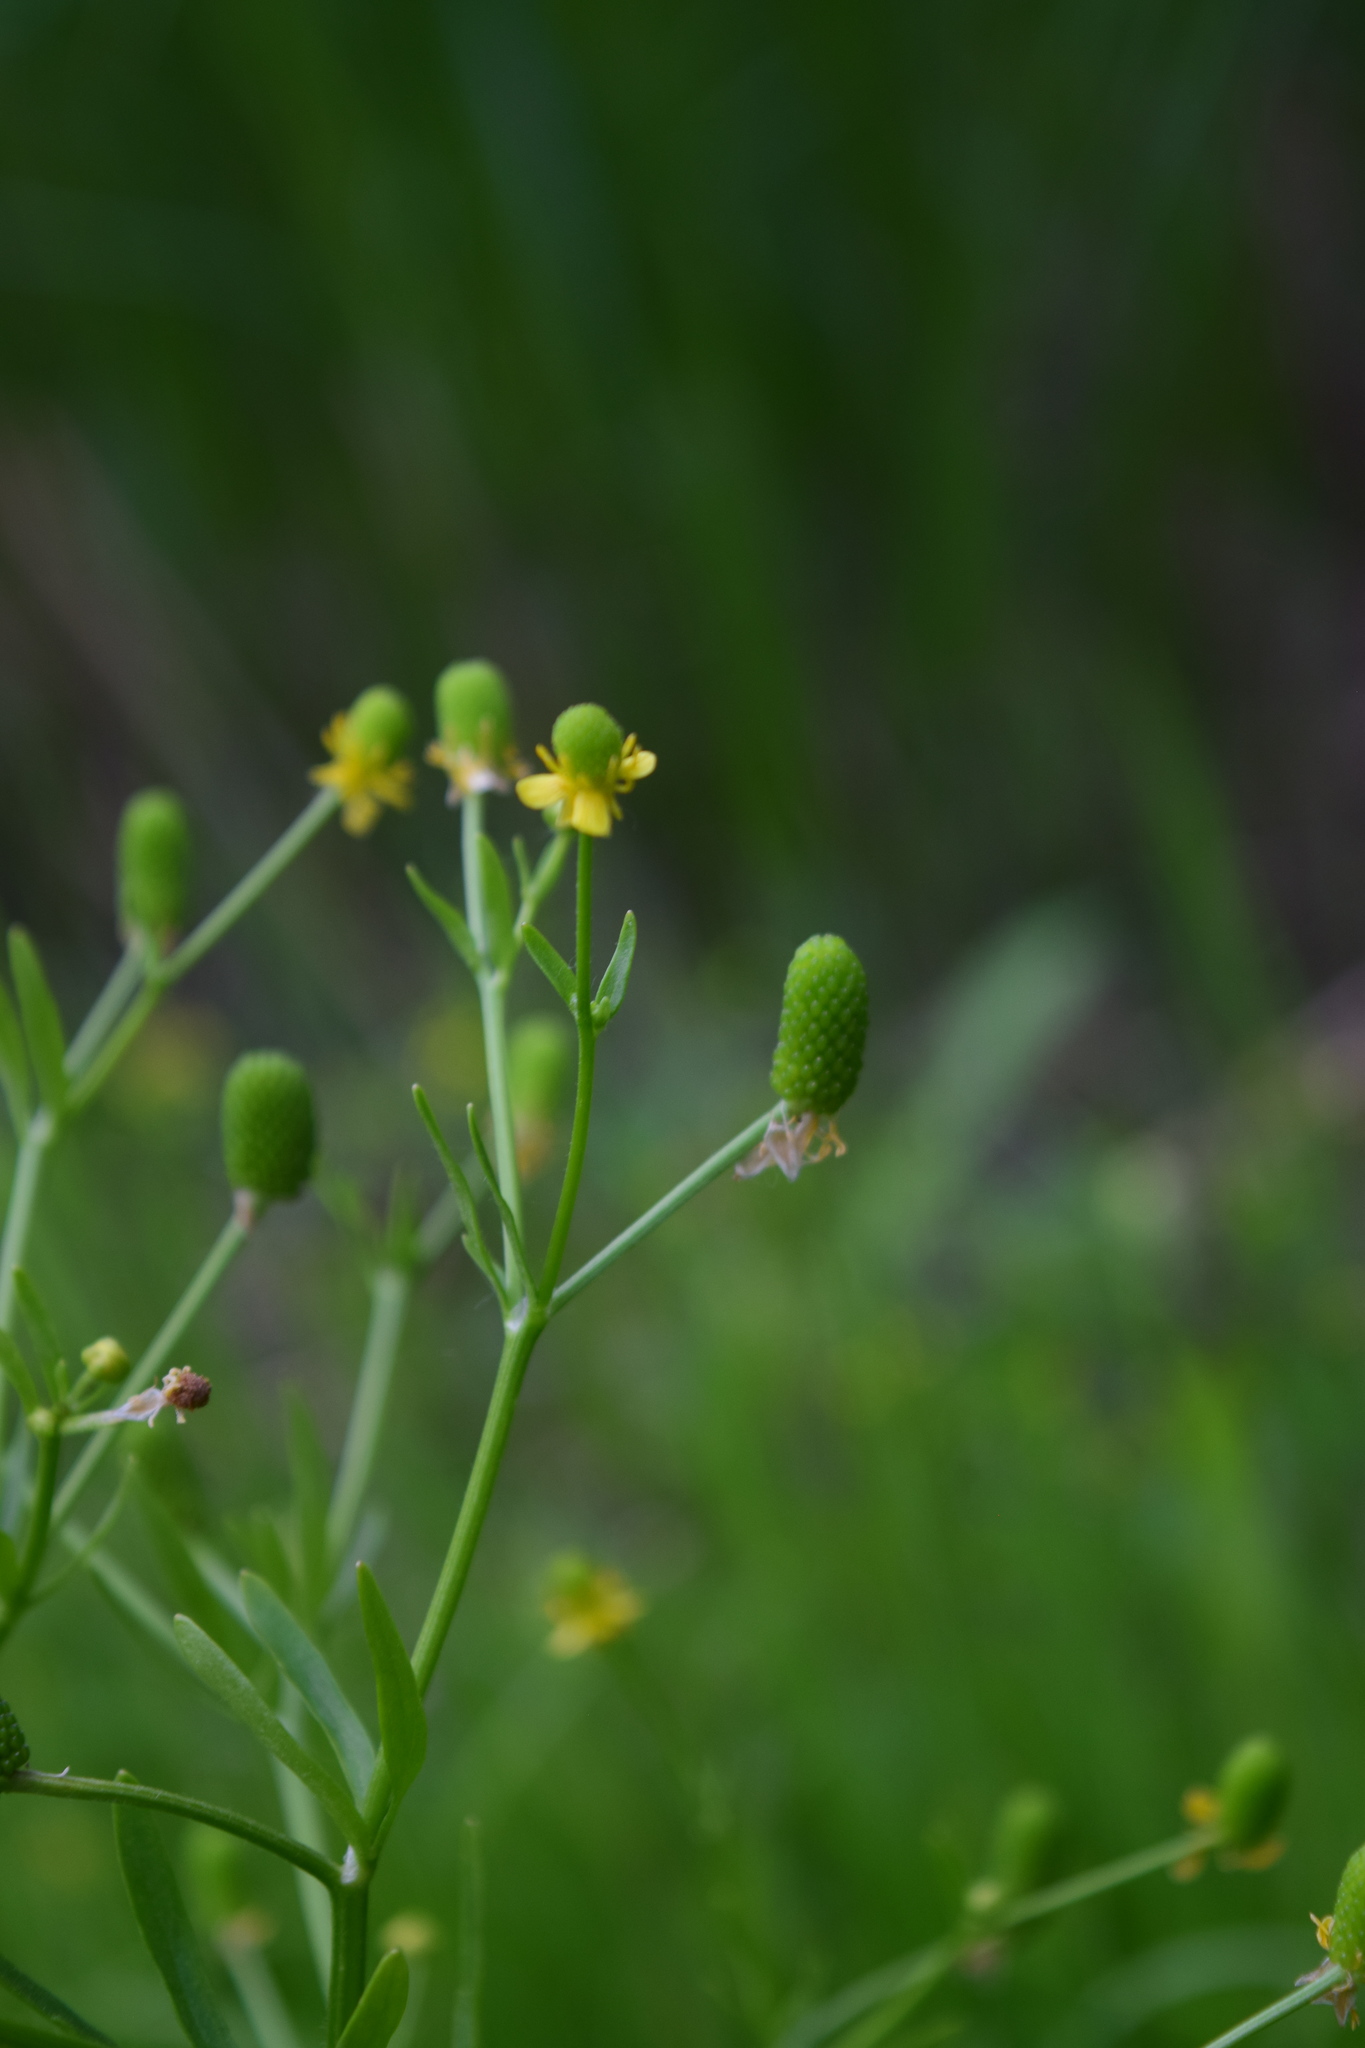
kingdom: Plantae
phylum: Tracheophyta
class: Magnoliopsida
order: Ranunculales
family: Ranunculaceae
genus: Ranunculus
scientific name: Ranunculus sceleratus
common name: Celery-leaved buttercup
